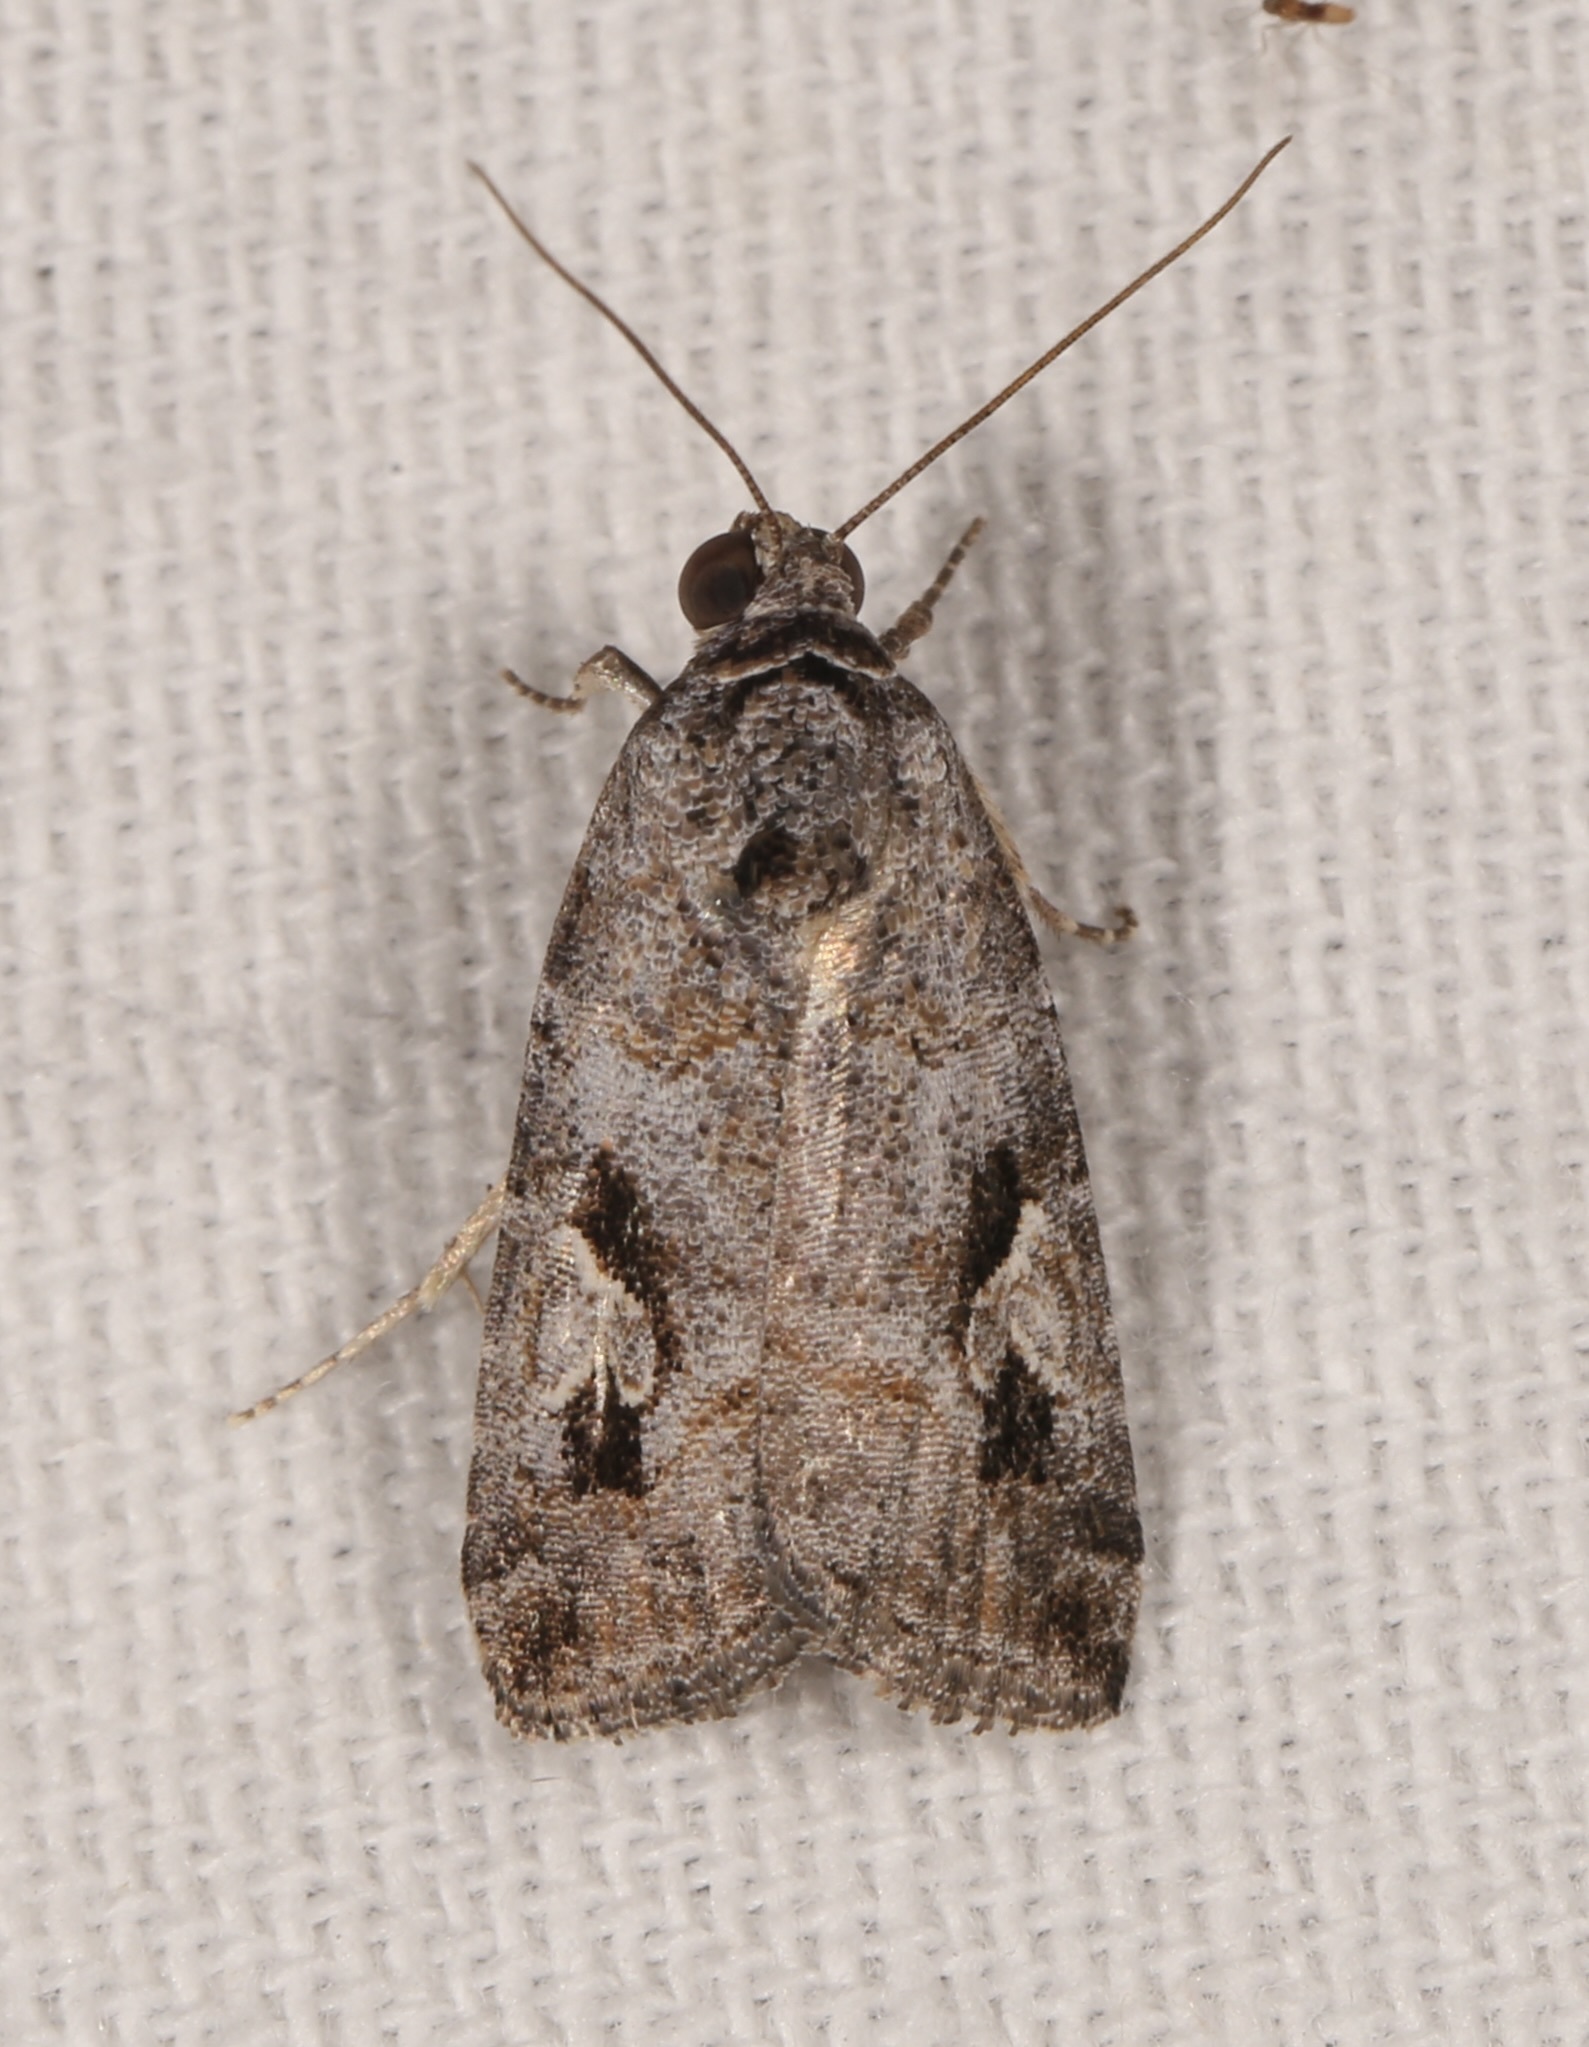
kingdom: Animalia
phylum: Arthropoda
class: Insecta
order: Lepidoptera
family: Noctuidae
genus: Metaponpneumata
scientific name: Metaponpneumata rogenhoferi
